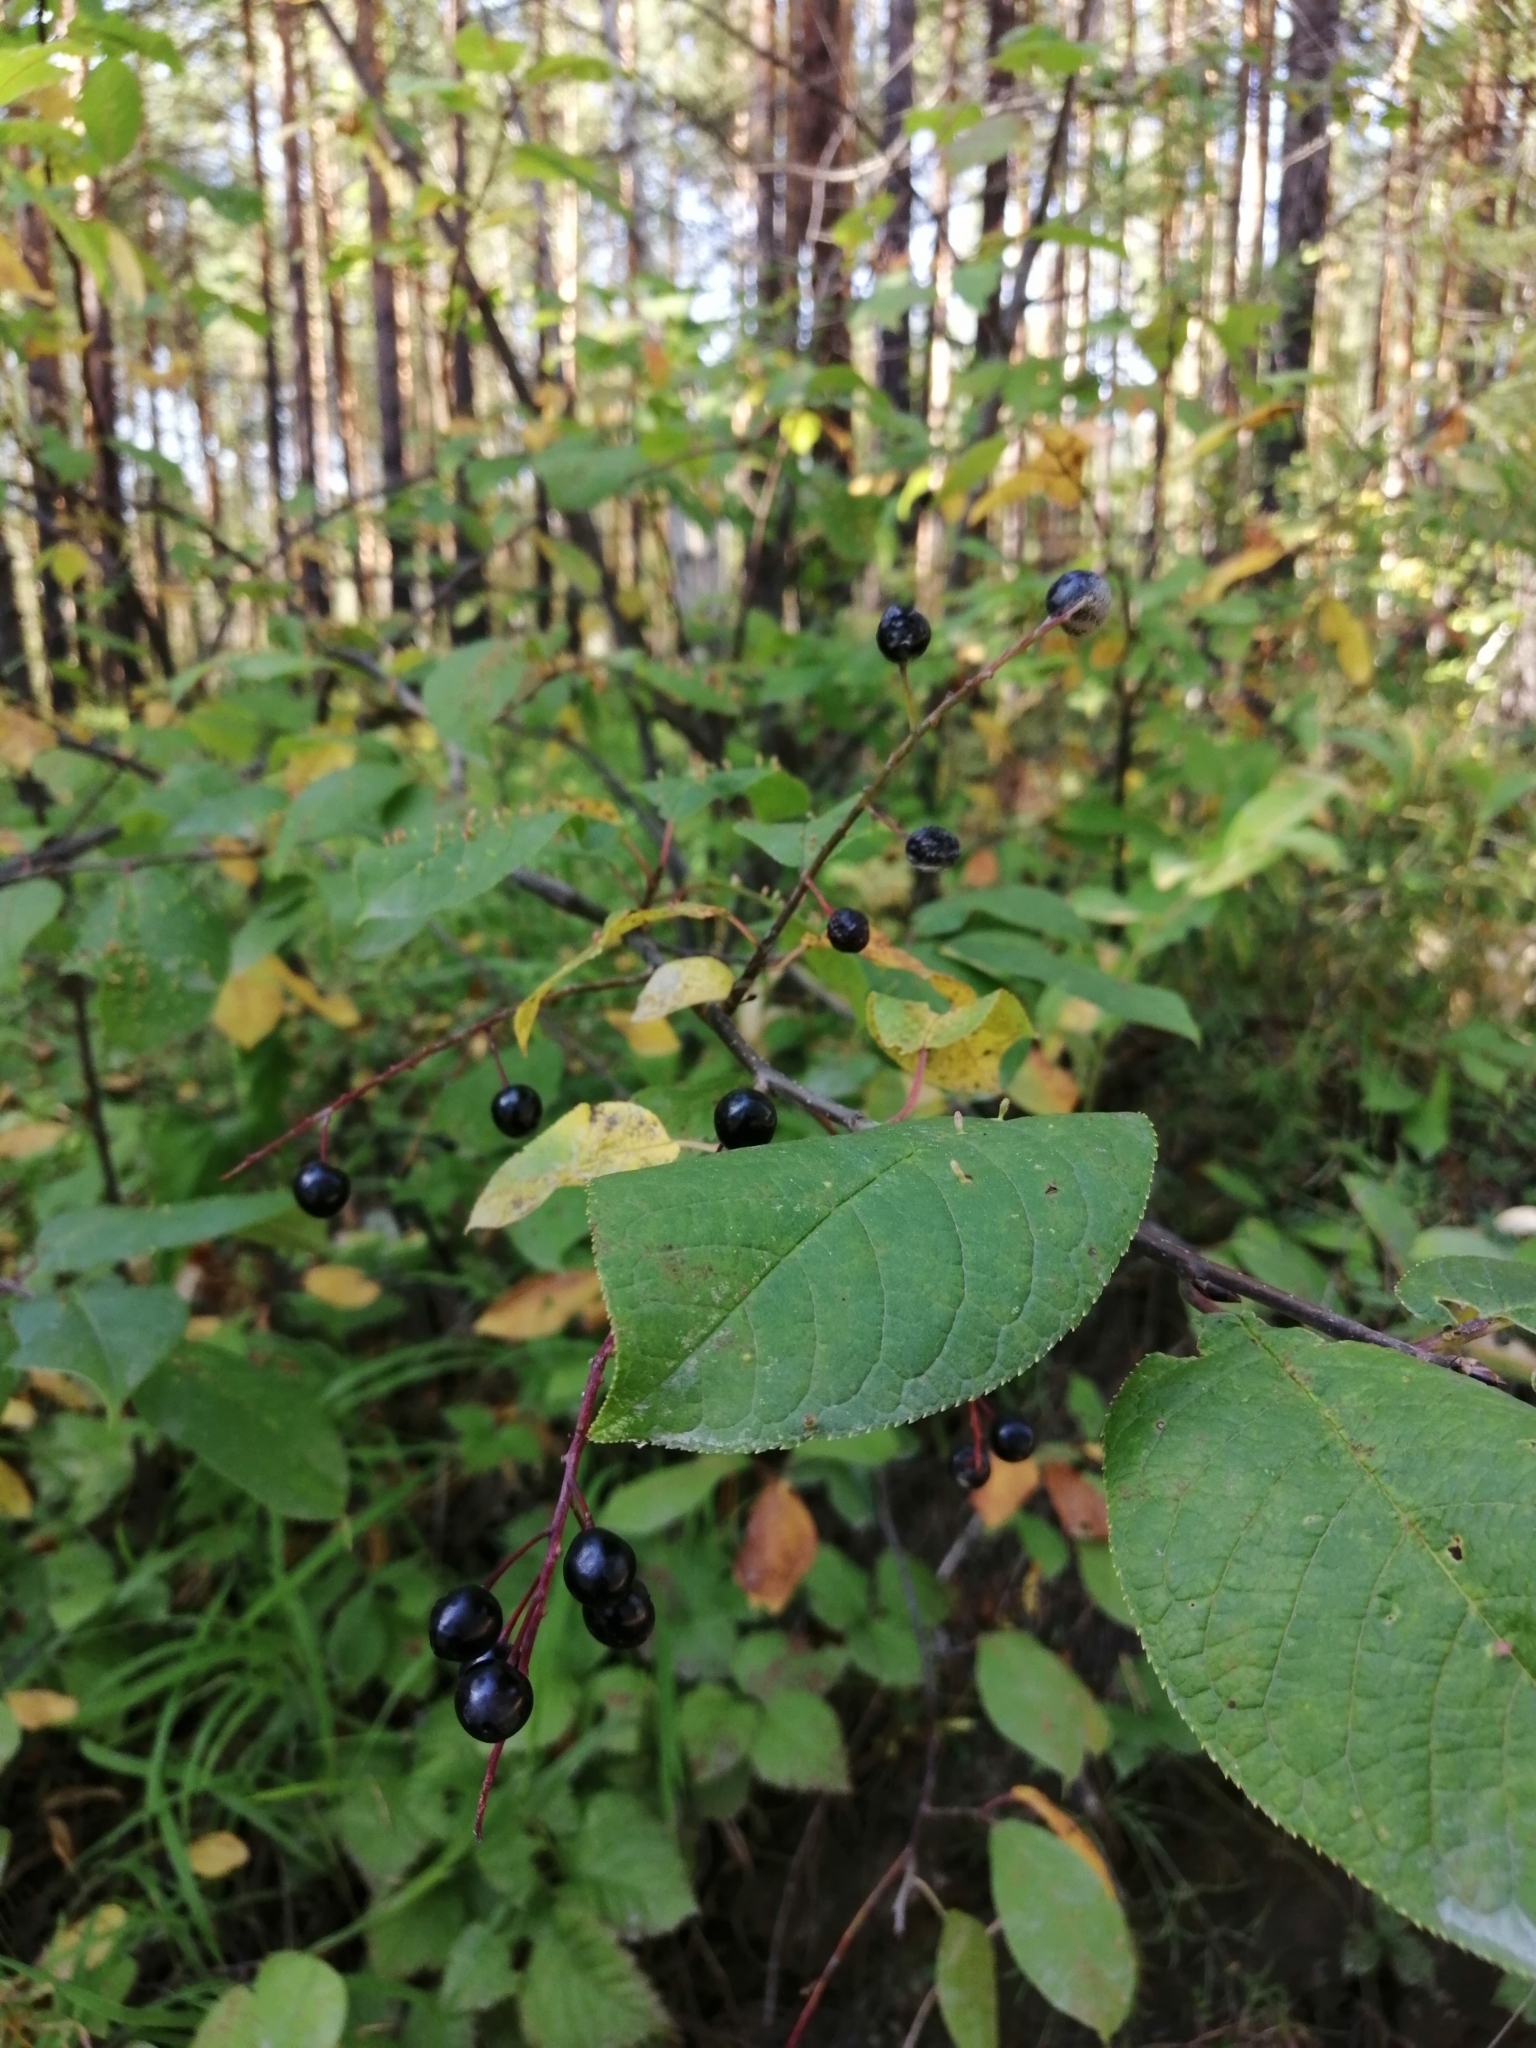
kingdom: Plantae
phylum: Tracheophyta
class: Magnoliopsida
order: Rosales
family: Rosaceae
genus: Prunus
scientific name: Prunus padus
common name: Bird cherry
